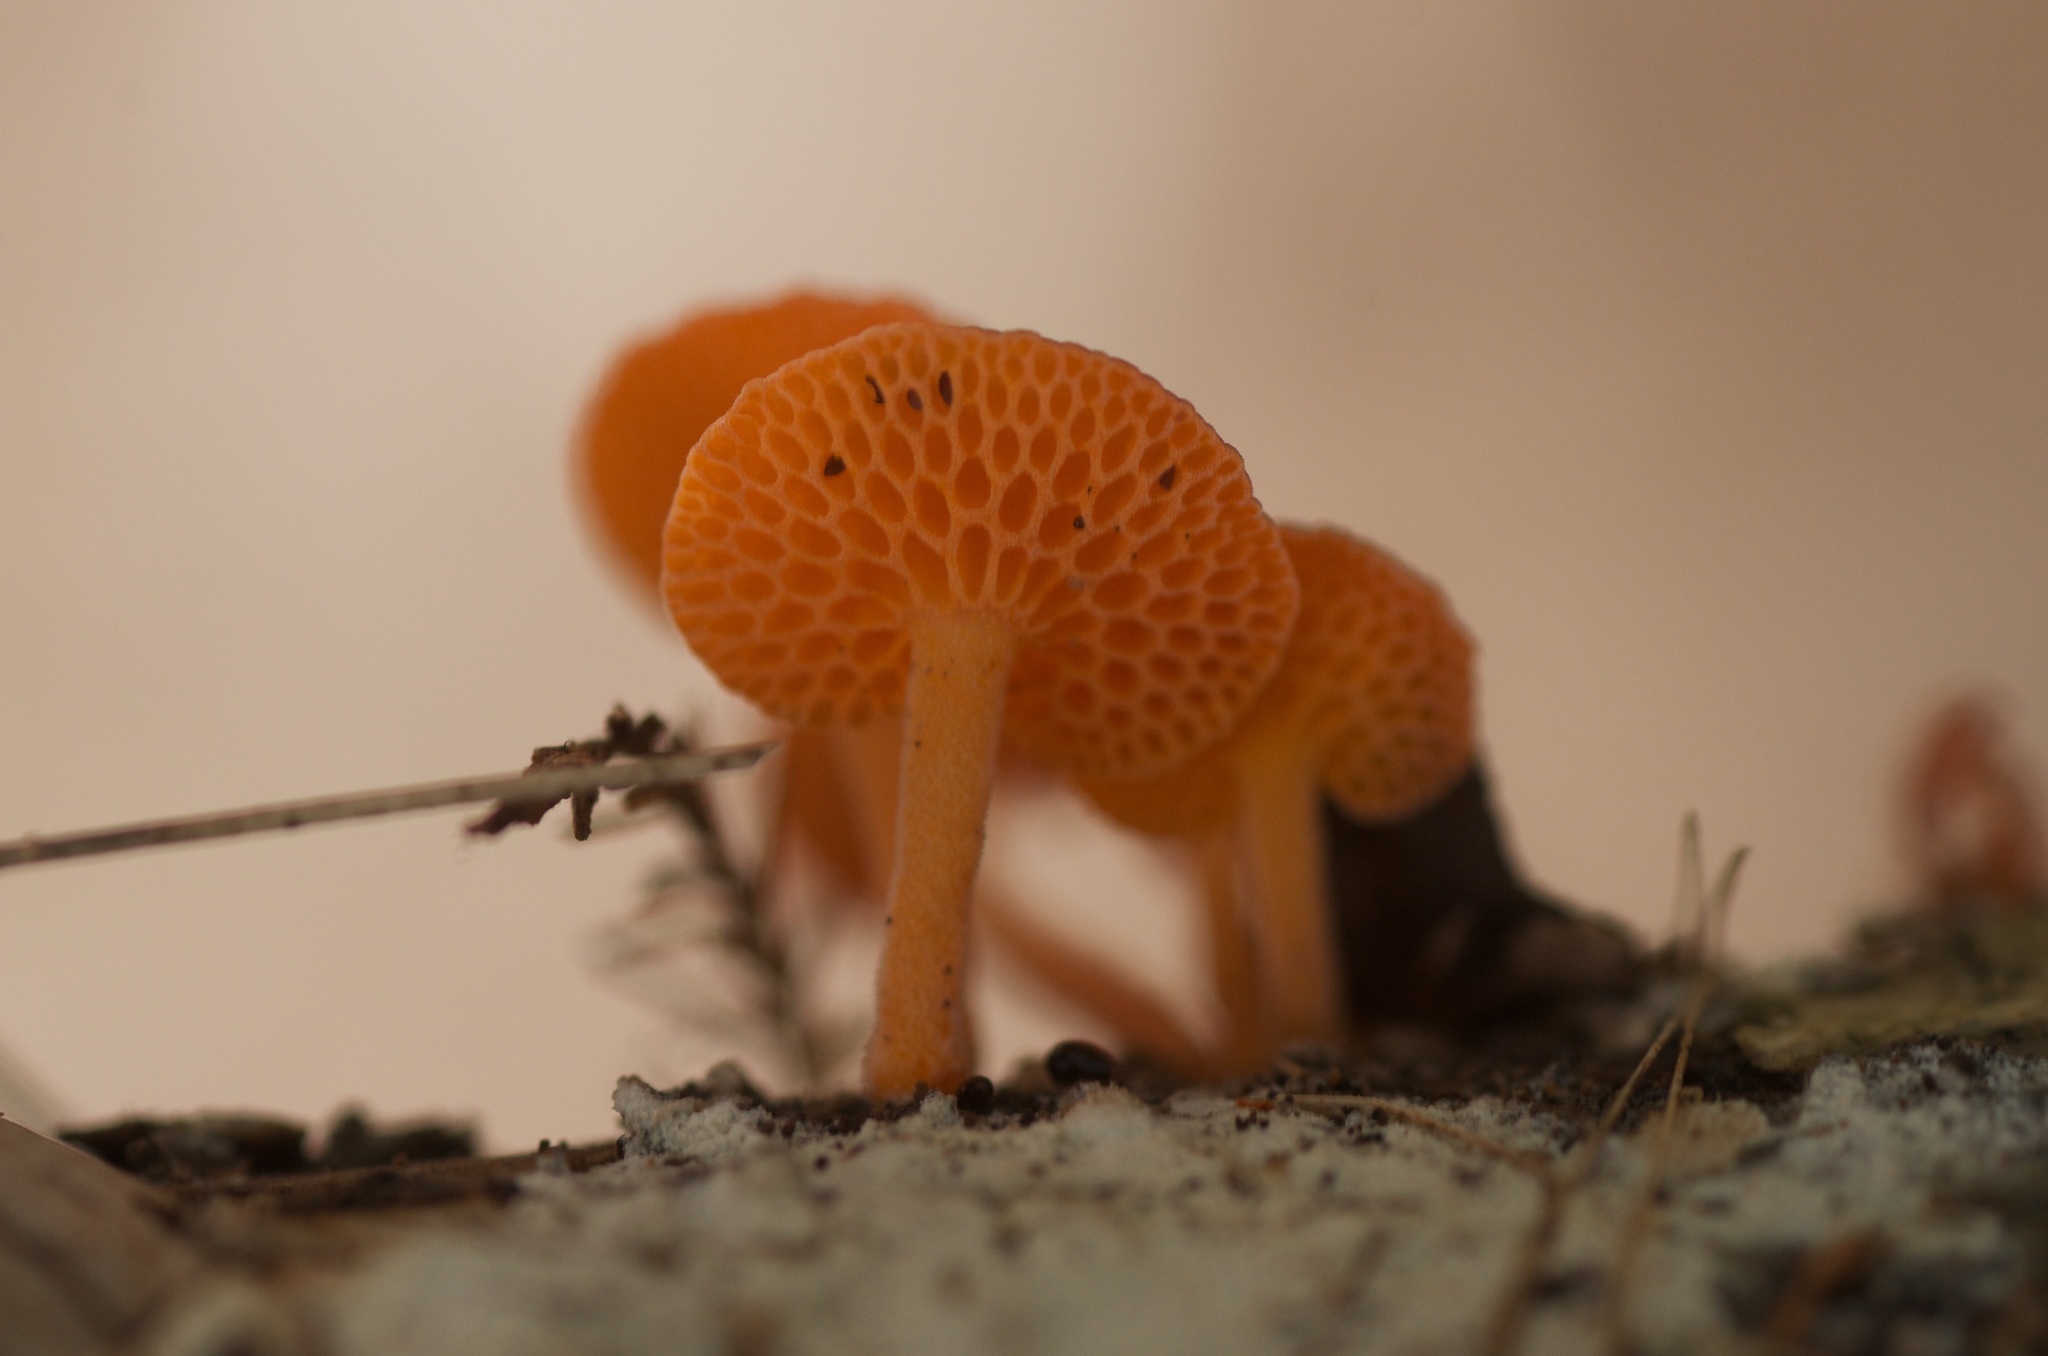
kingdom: Fungi
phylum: Basidiomycota
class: Agaricomycetes
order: Agaricales
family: Mycenaceae
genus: Favolaschia
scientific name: Favolaschia claudopus
